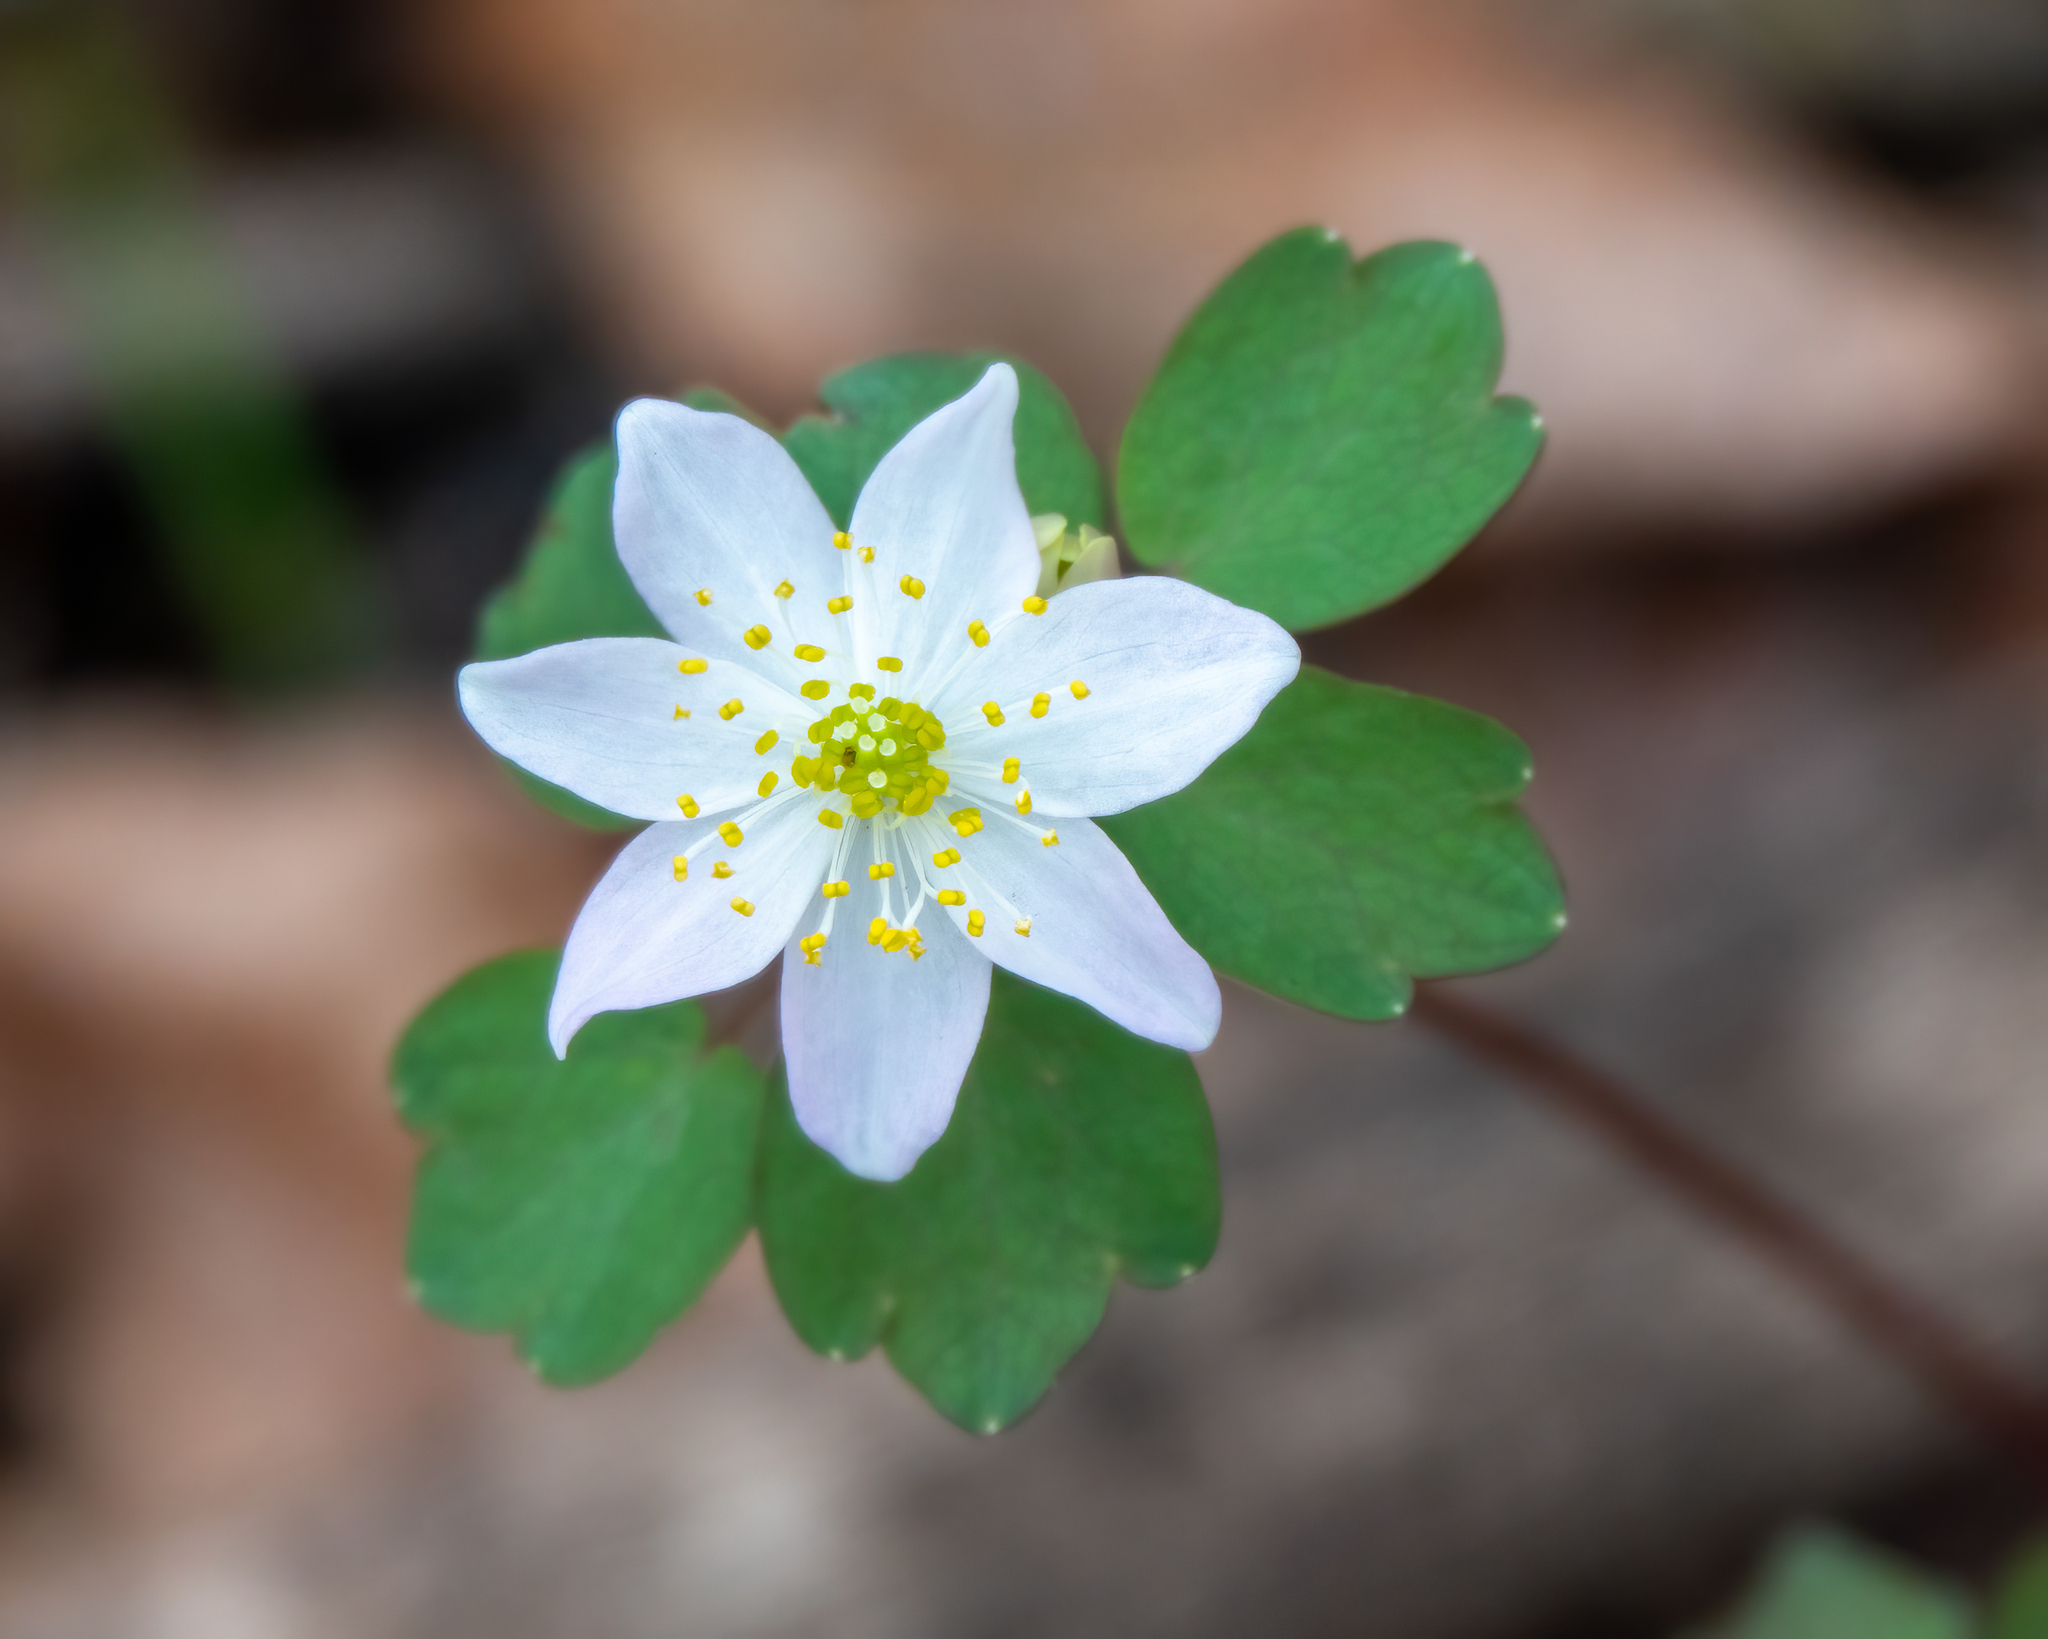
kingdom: Plantae
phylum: Tracheophyta
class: Magnoliopsida
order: Ranunculales
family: Ranunculaceae
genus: Thalictrum
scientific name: Thalictrum thalictroides
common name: Rue-anemone
